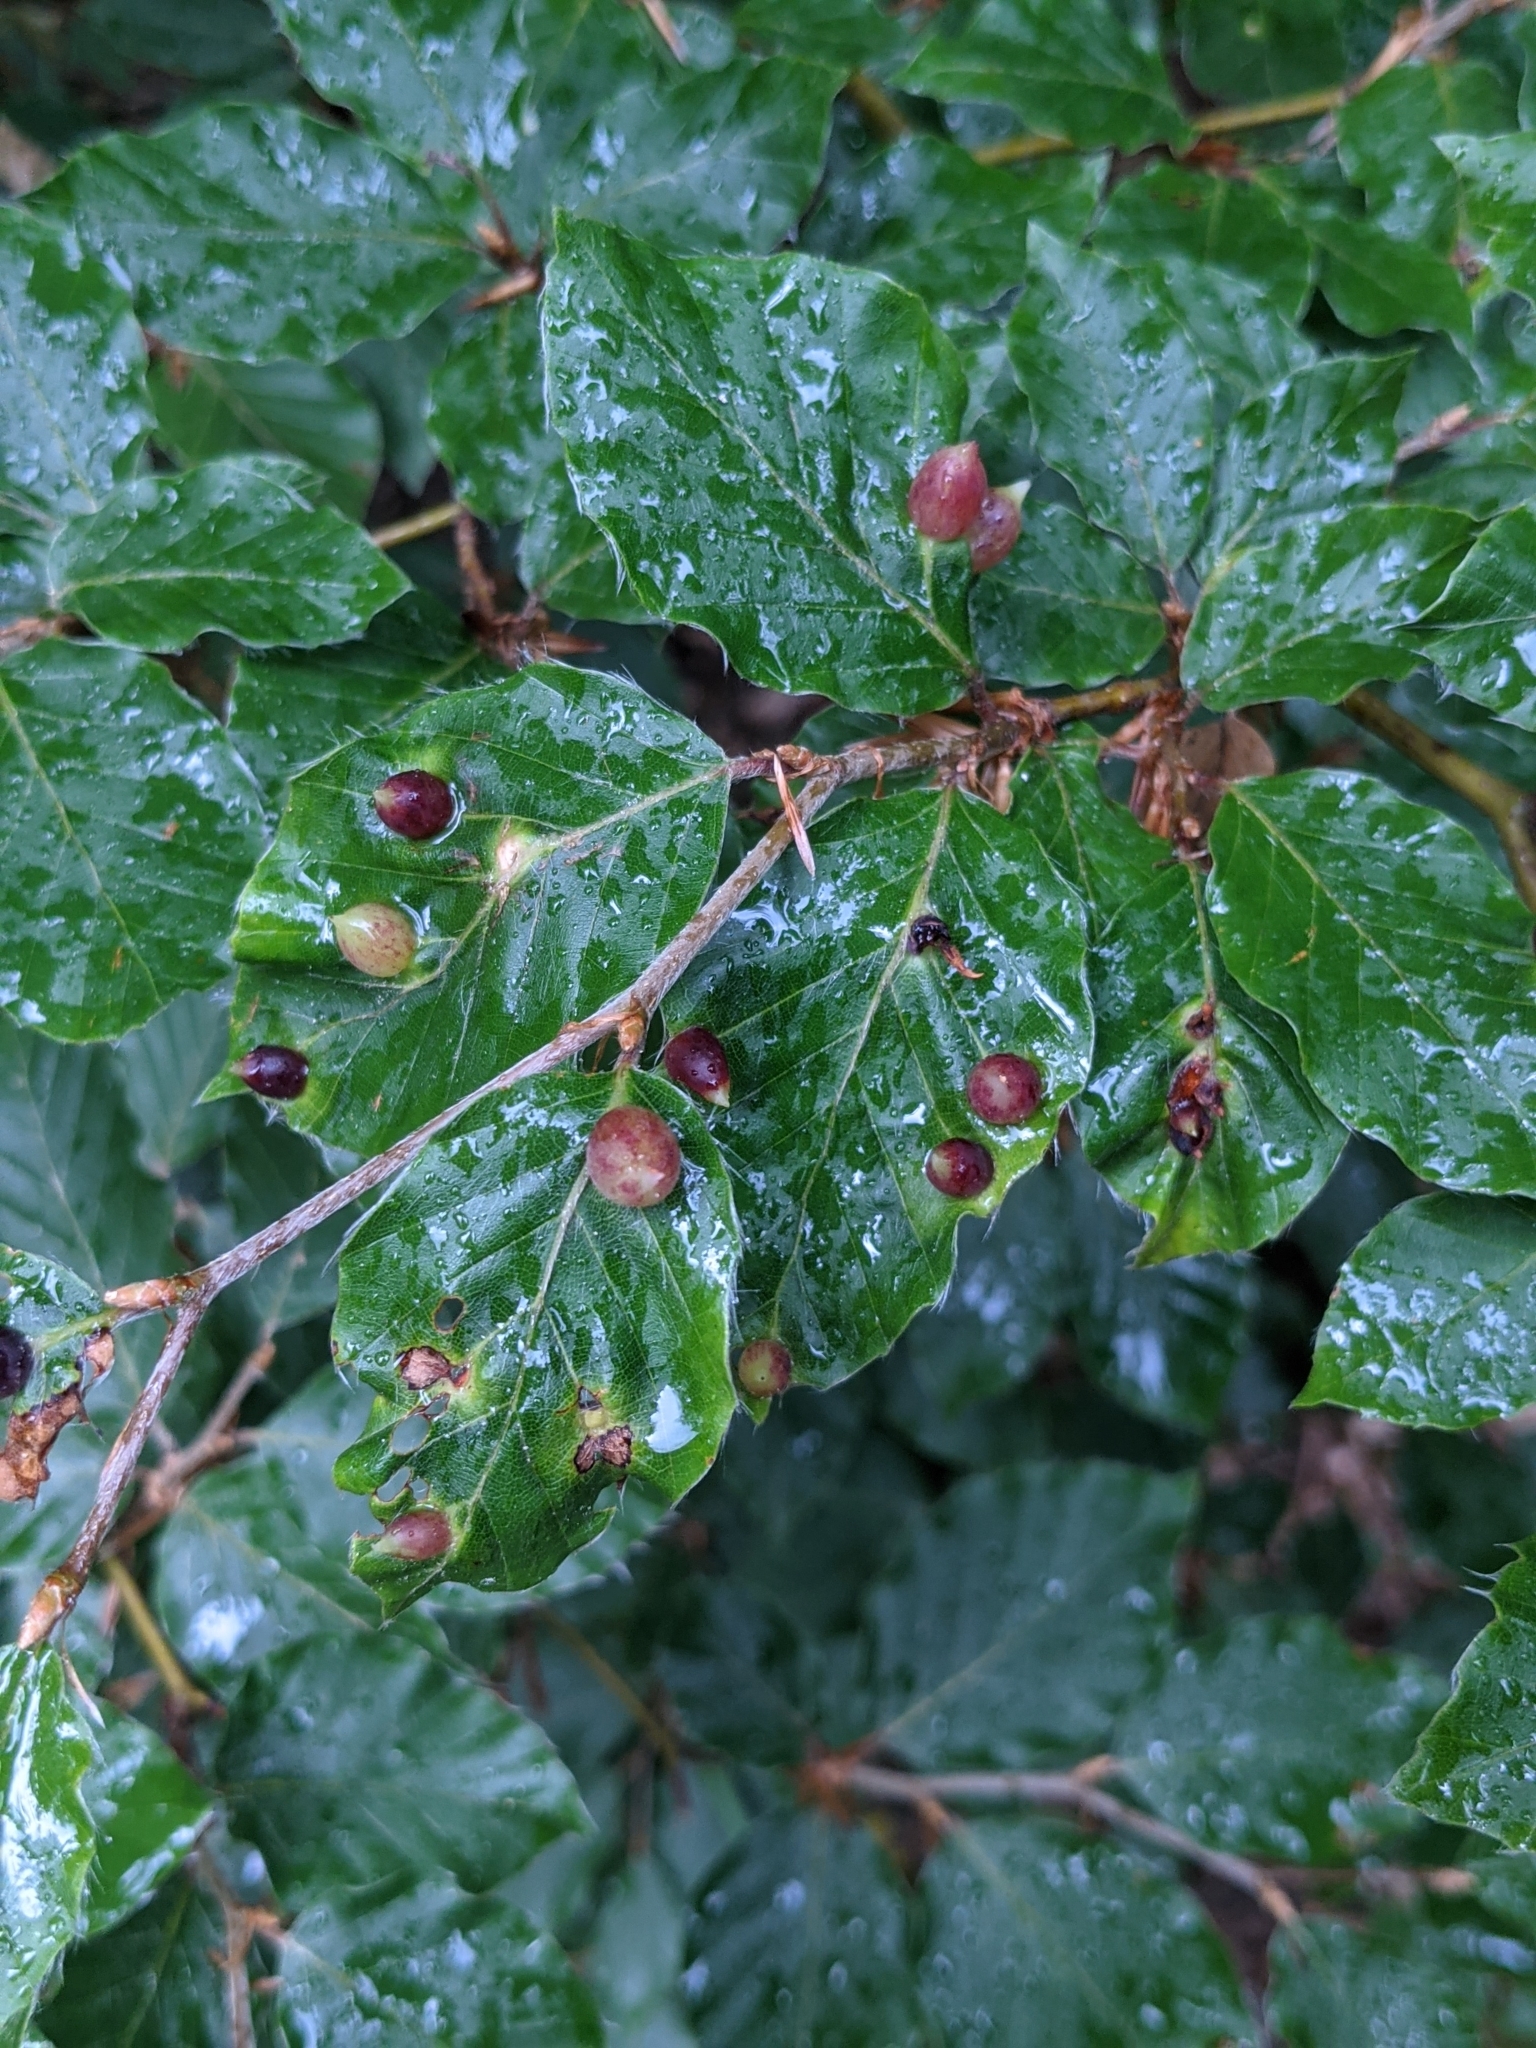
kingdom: Animalia
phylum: Arthropoda
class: Insecta
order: Diptera
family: Cecidomyiidae
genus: Mikiola
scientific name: Mikiola fagi
